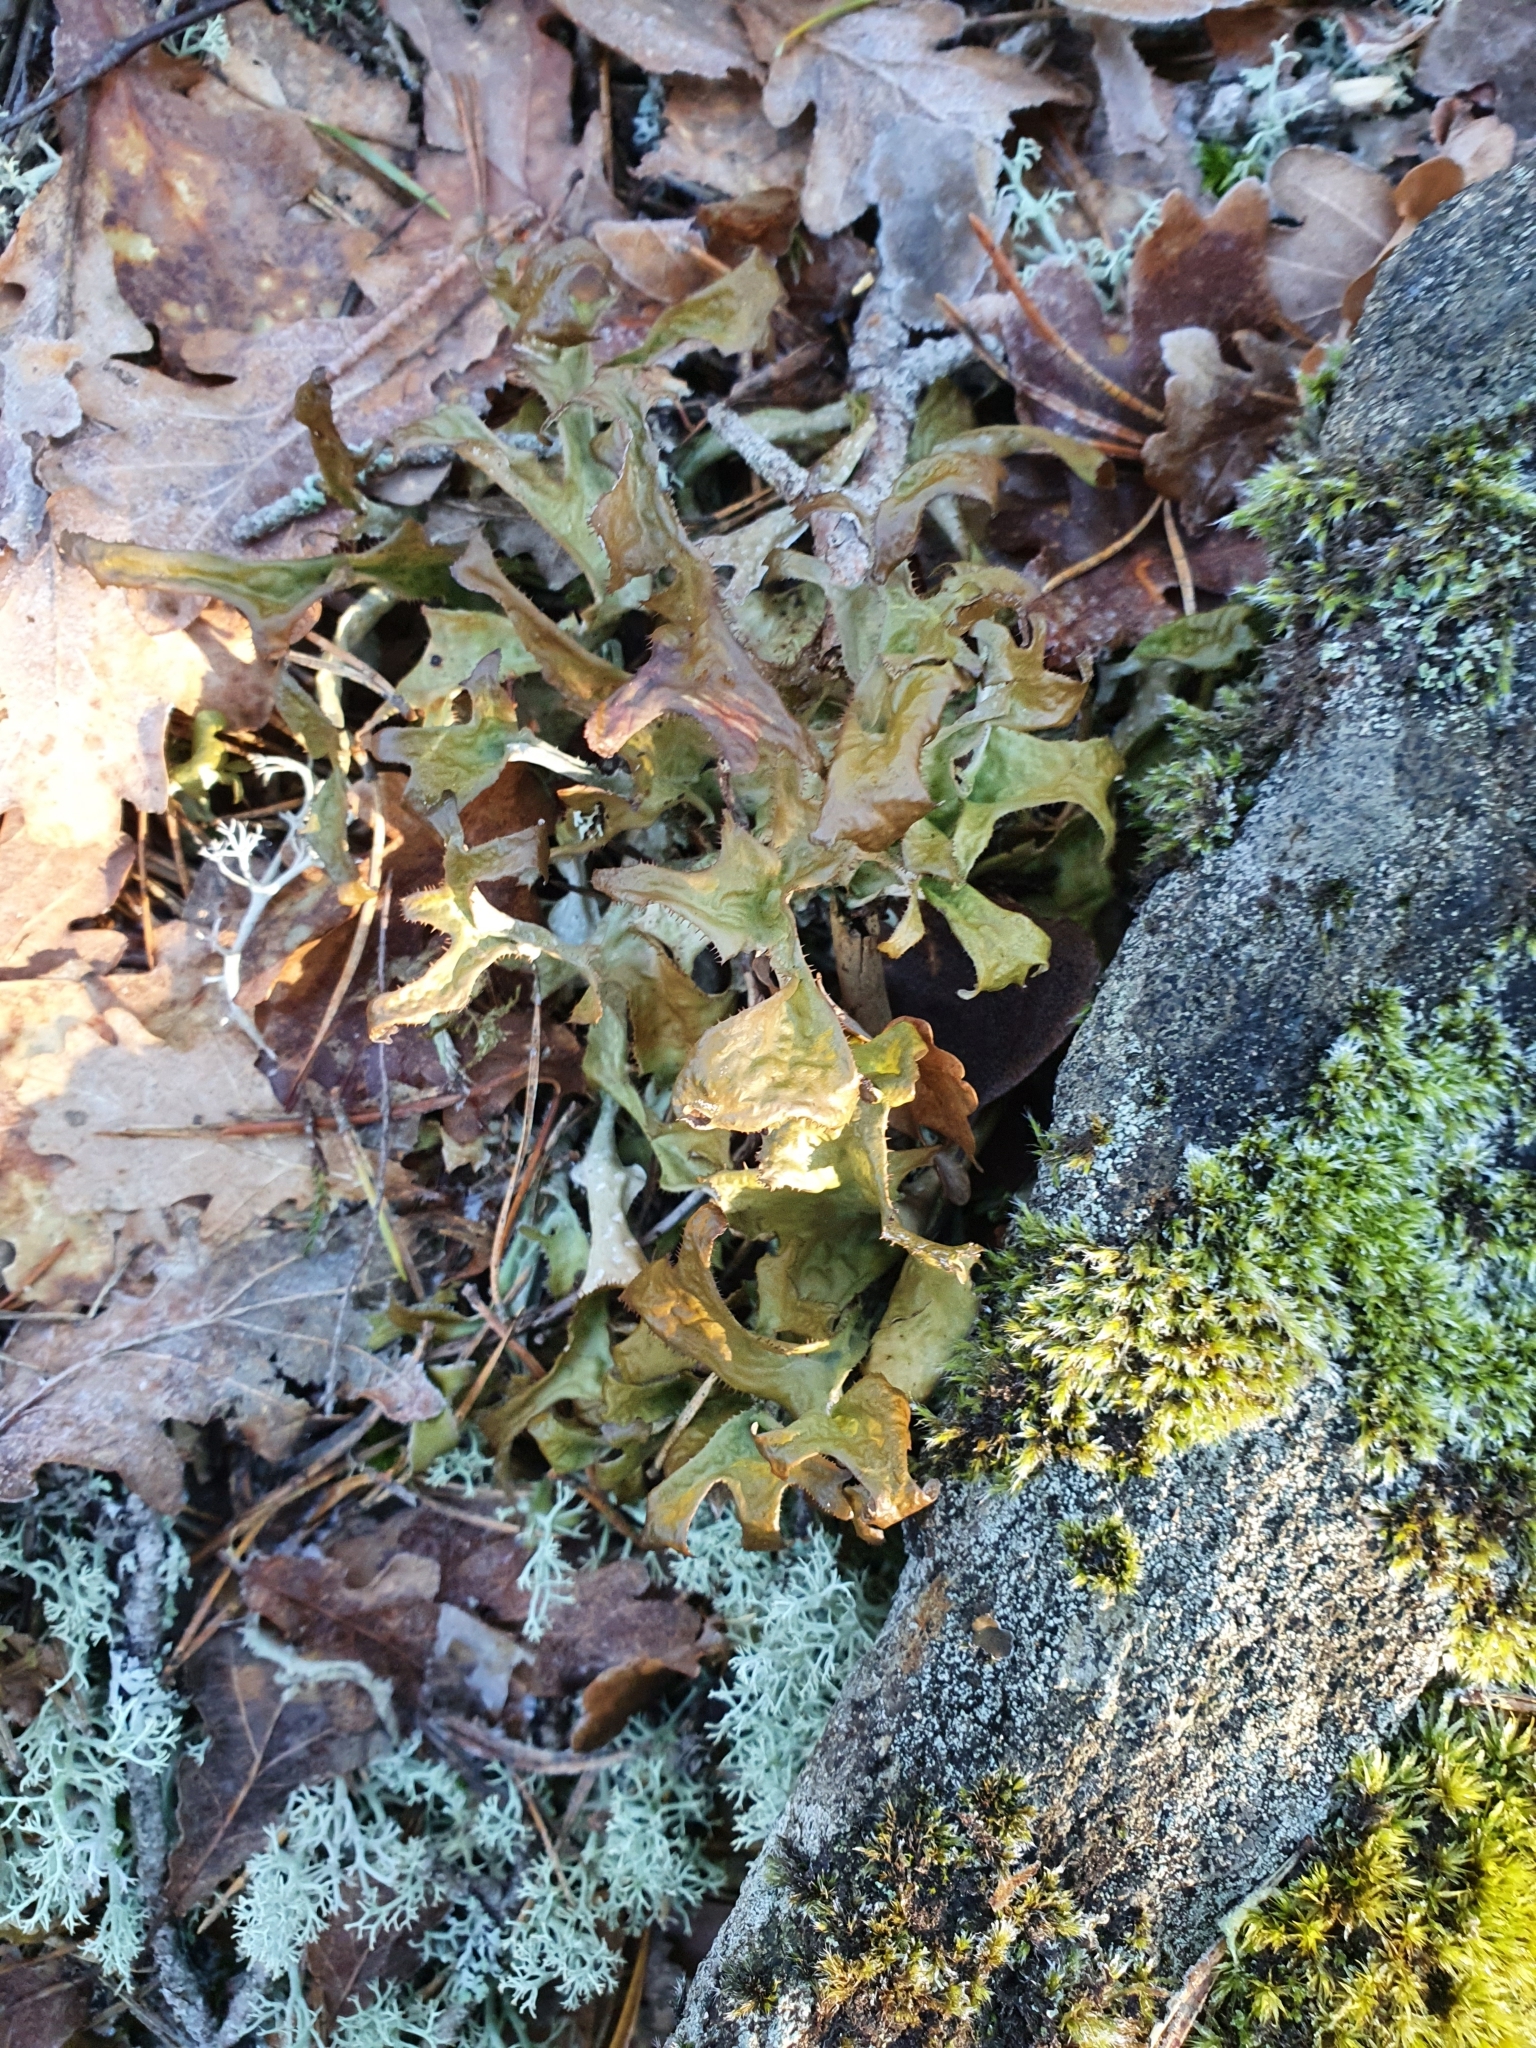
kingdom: Fungi
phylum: Ascomycota
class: Lecanoromycetes
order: Lecanorales
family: Parmeliaceae
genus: Cetraria
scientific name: Cetraria islandica
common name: Iceland lichen
